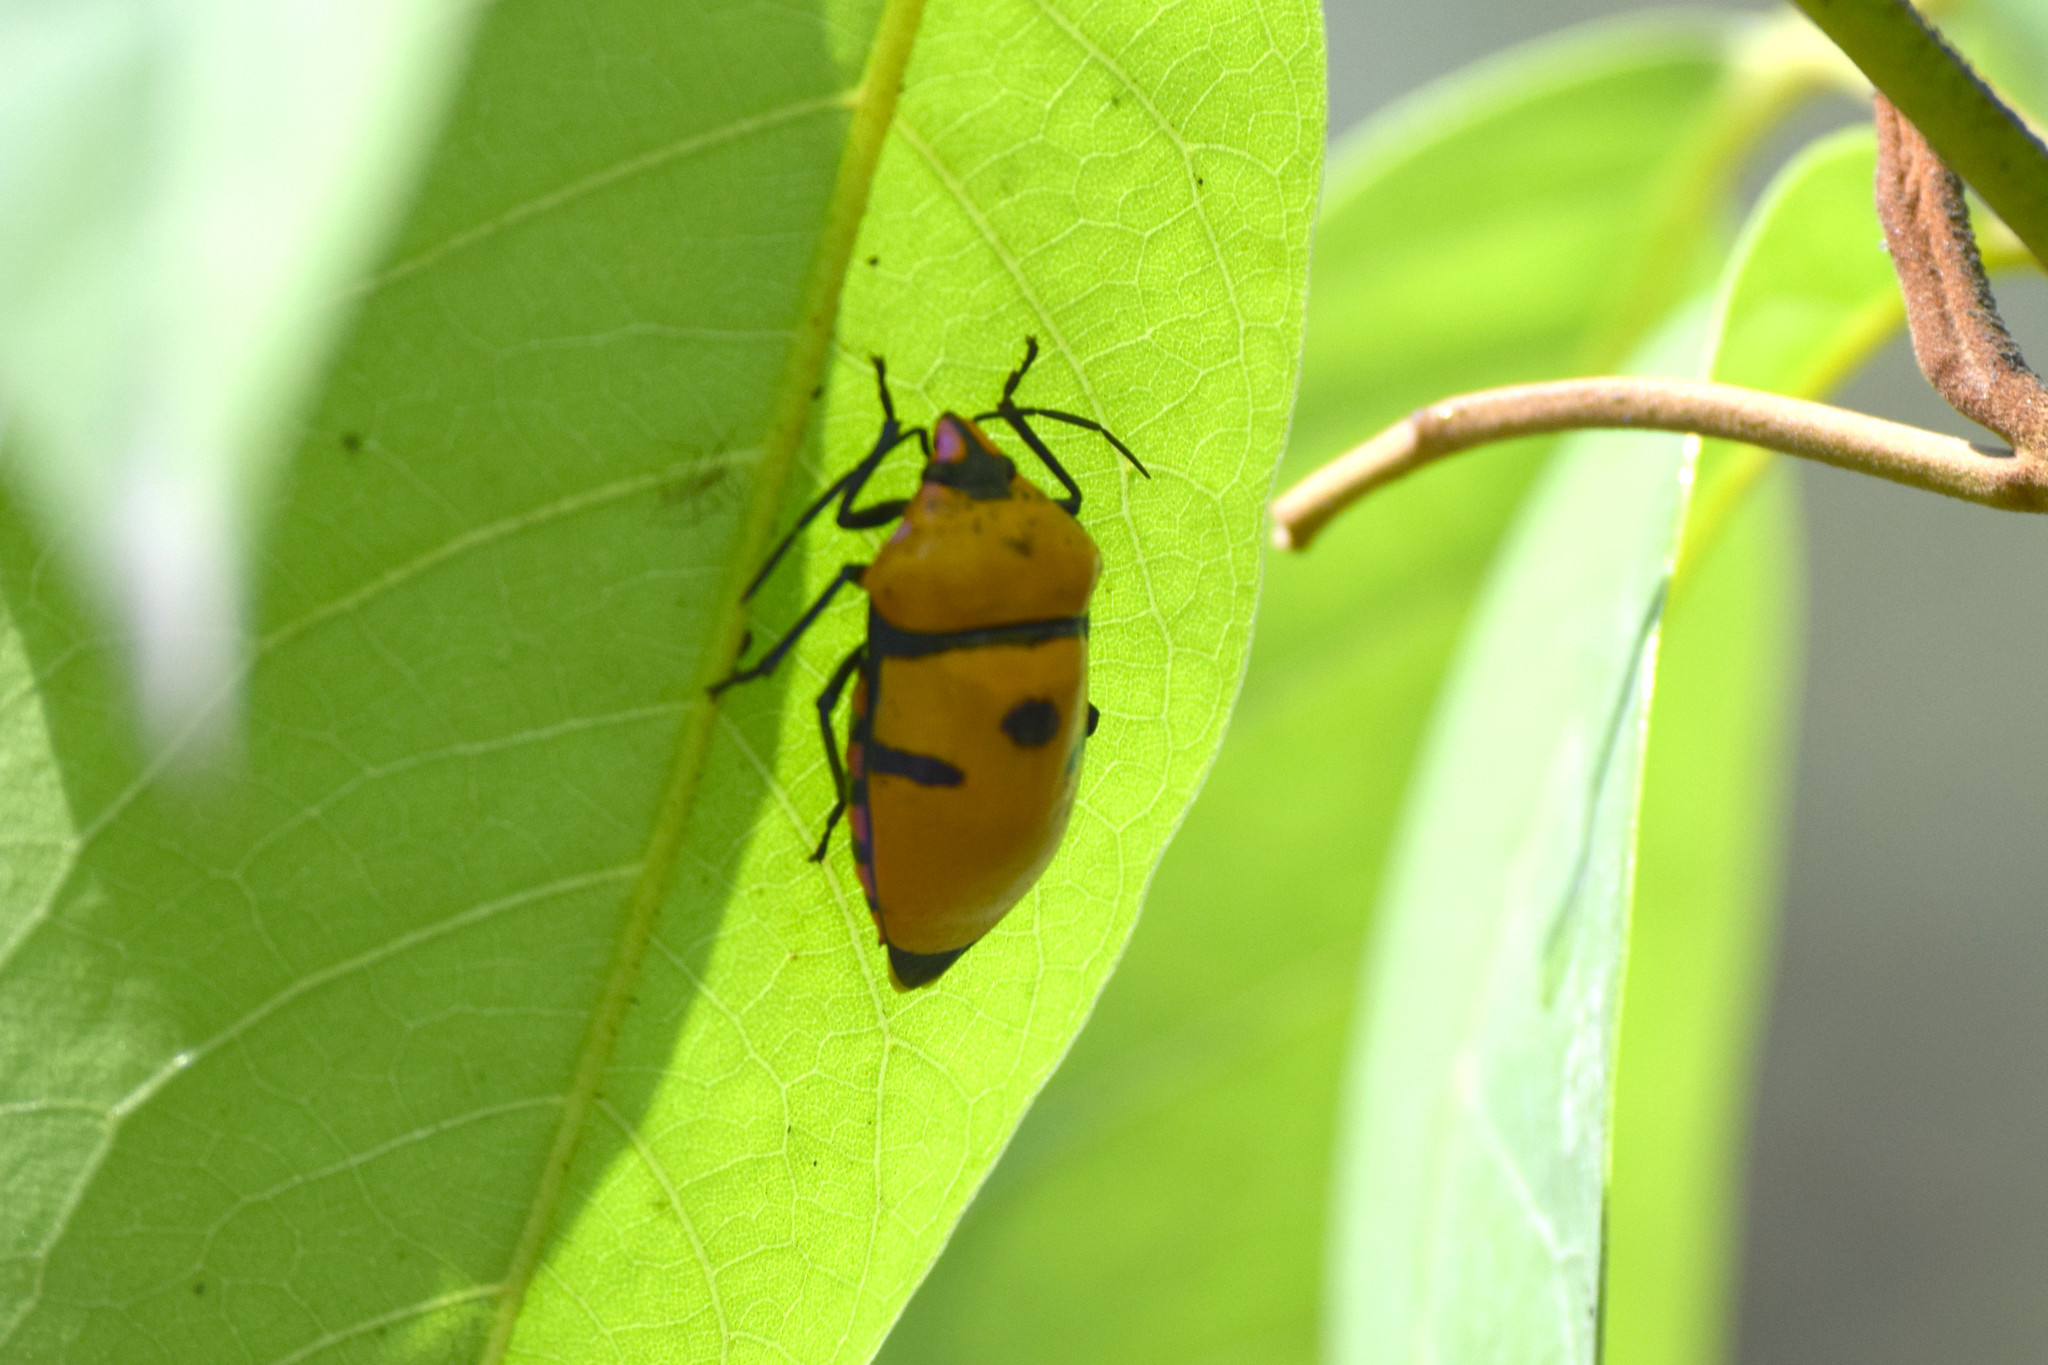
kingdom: Animalia
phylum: Arthropoda
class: Insecta
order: Hemiptera
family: Scutelleridae
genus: Eucorysses
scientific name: Eucorysses grandis
